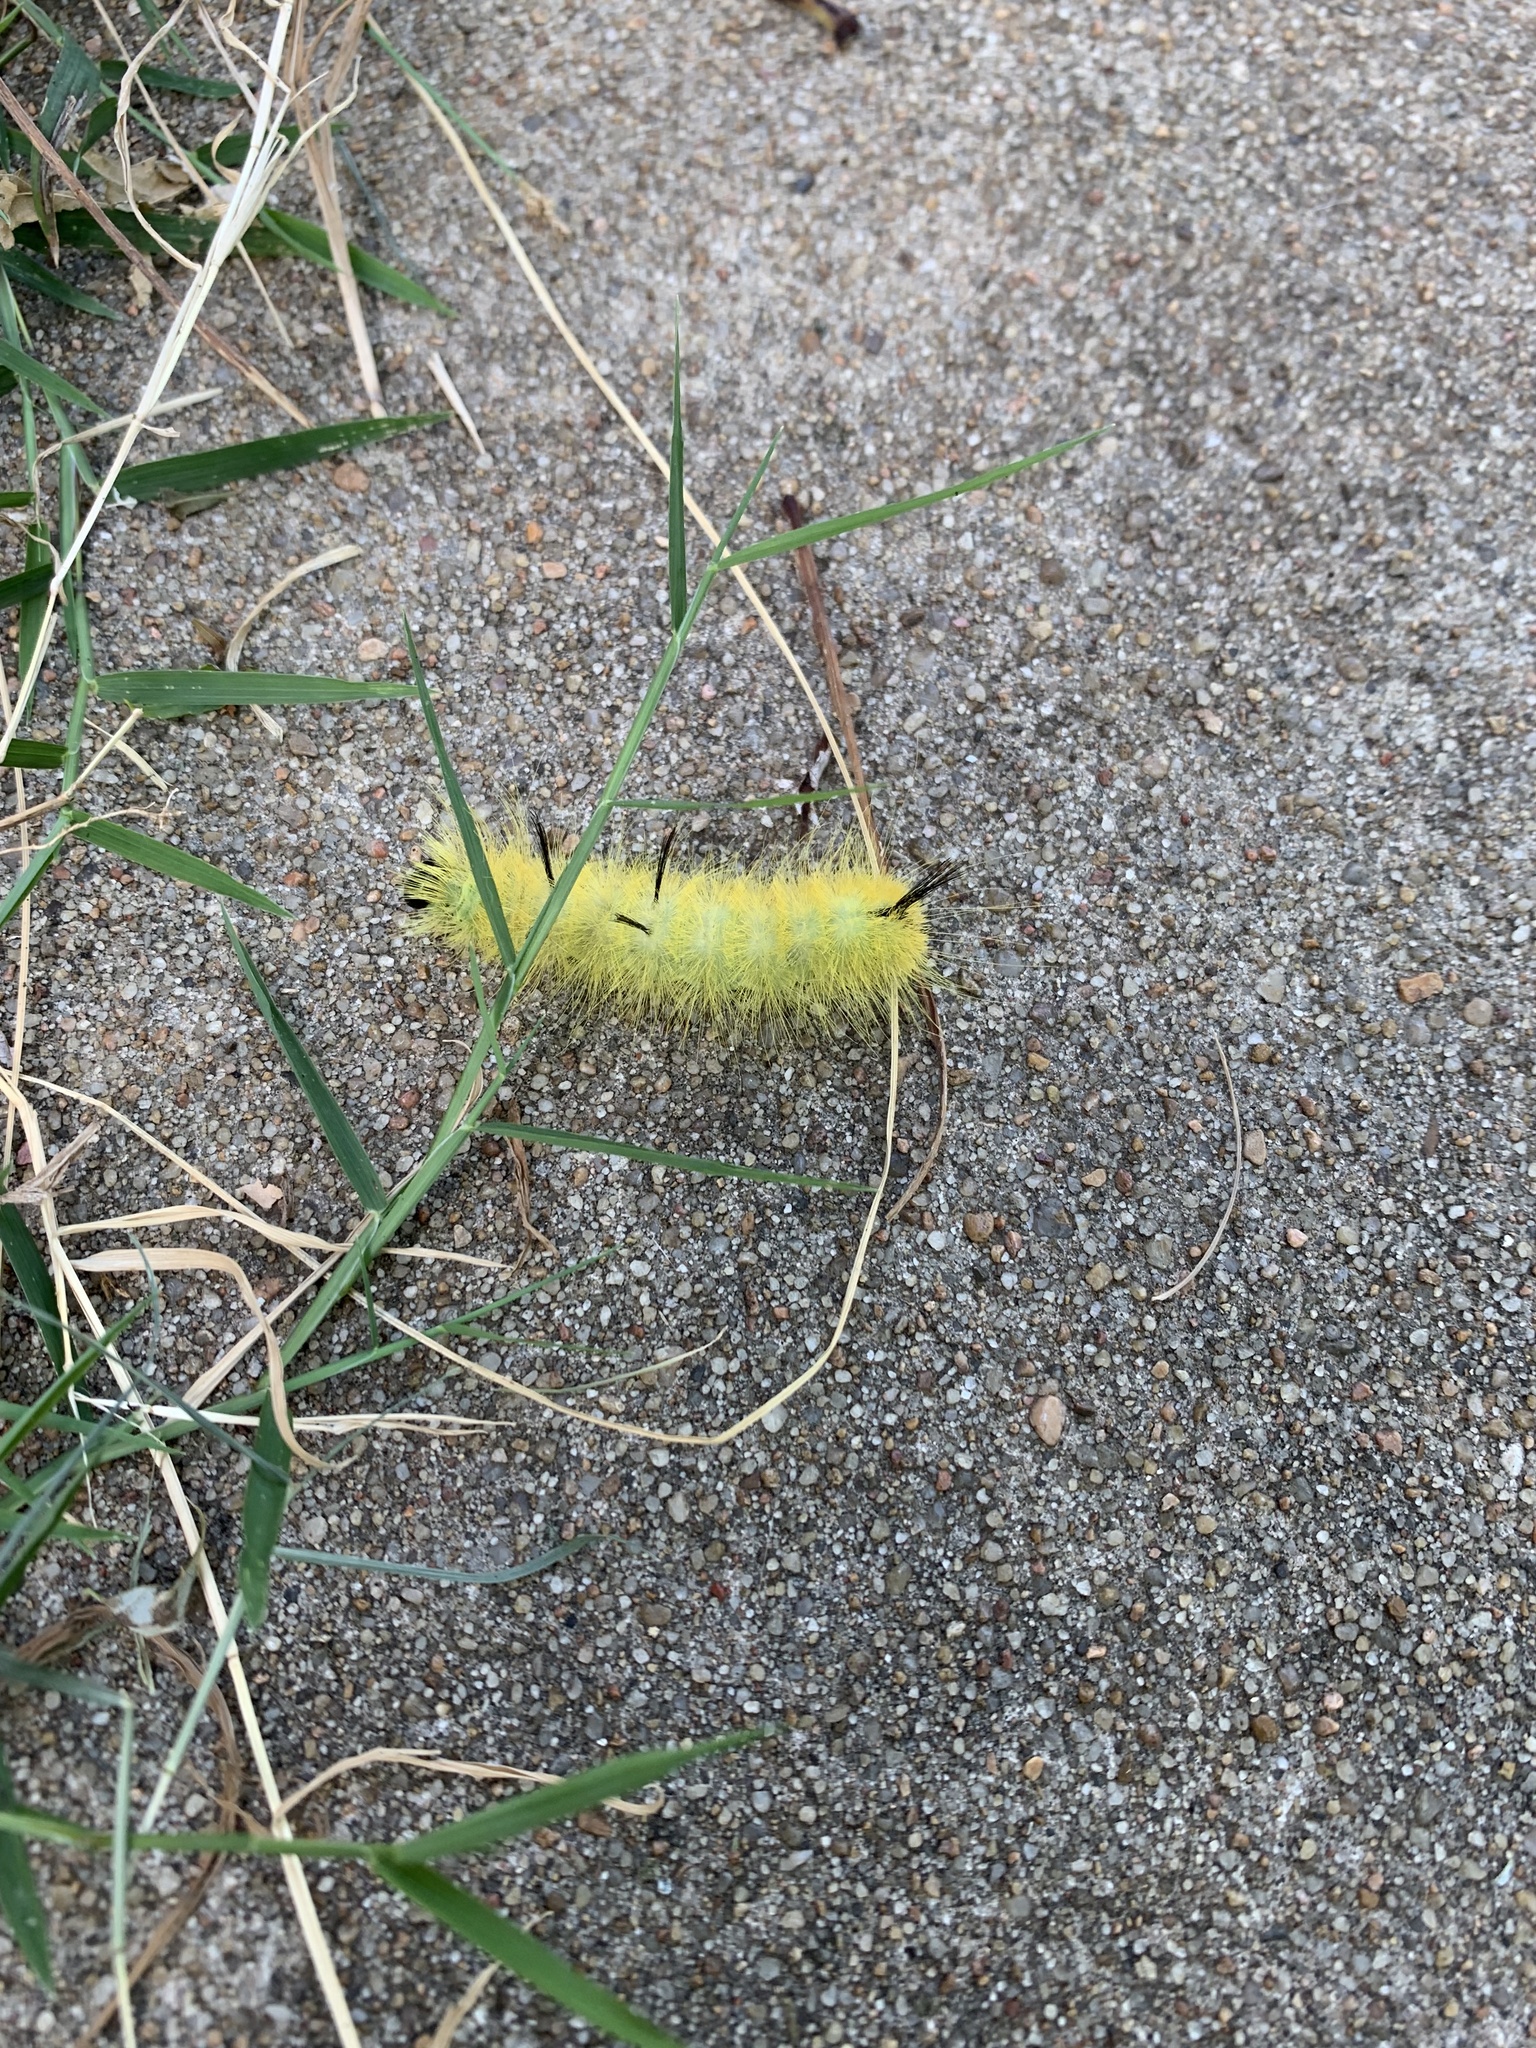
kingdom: Animalia
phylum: Arthropoda
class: Insecta
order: Lepidoptera
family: Noctuidae
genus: Acronicta
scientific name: Acronicta americana
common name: American dagger
